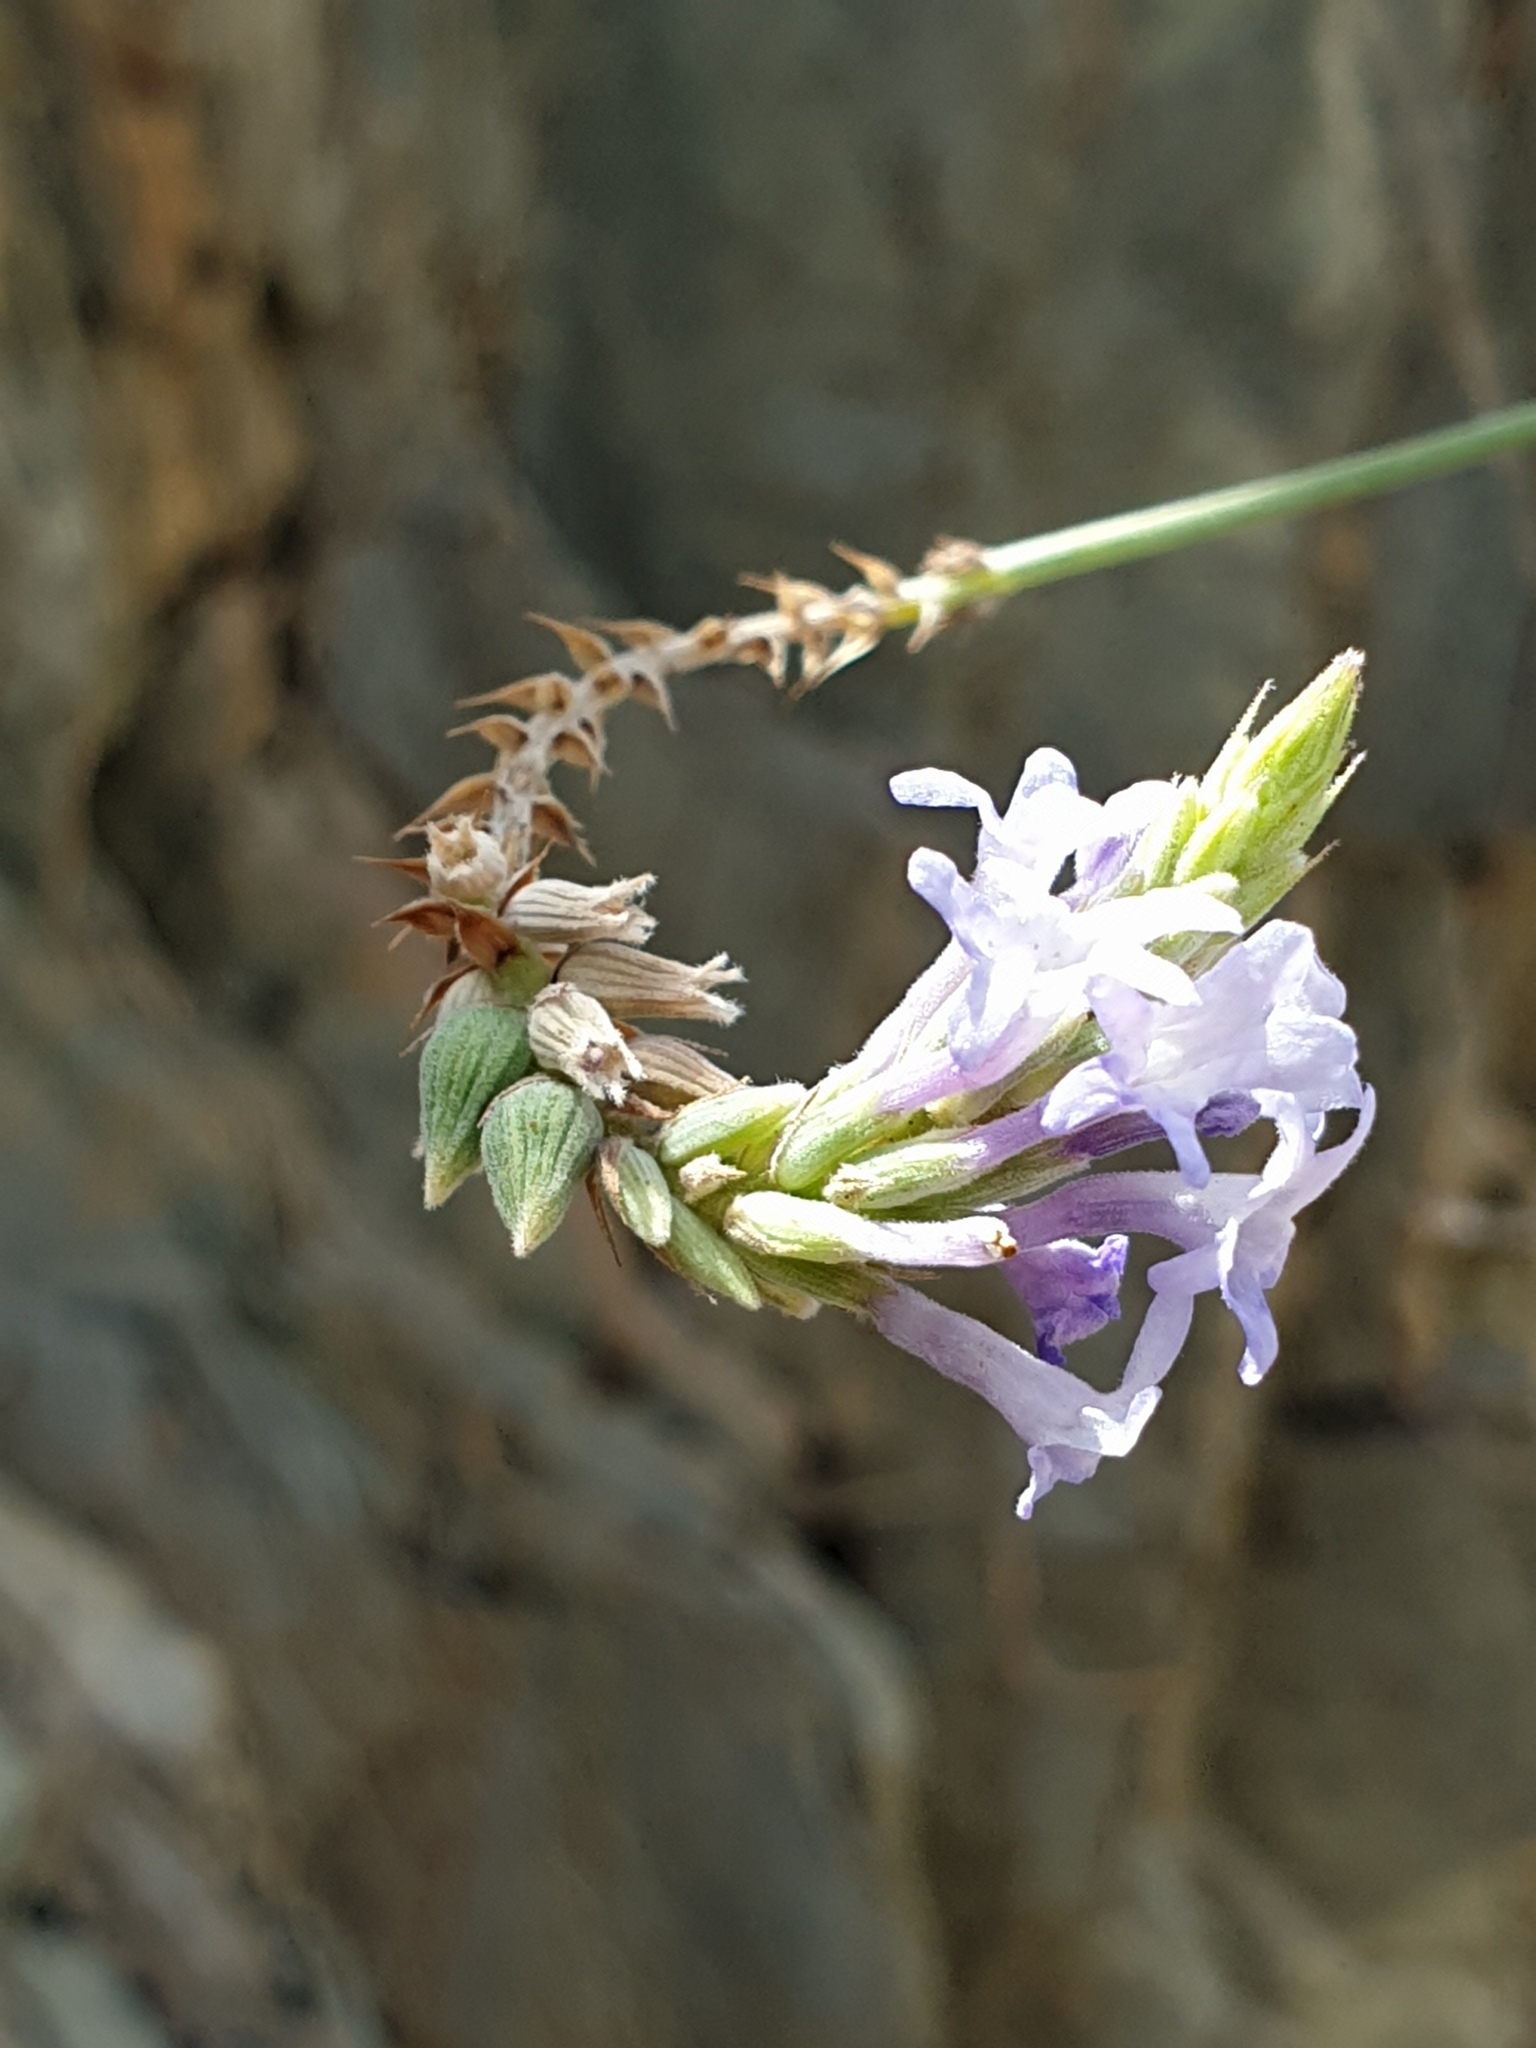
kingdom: Plantae
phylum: Tracheophyta
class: Magnoliopsida
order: Lamiales
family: Lamiaceae
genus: Lavandula
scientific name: Lavandula subnuda
